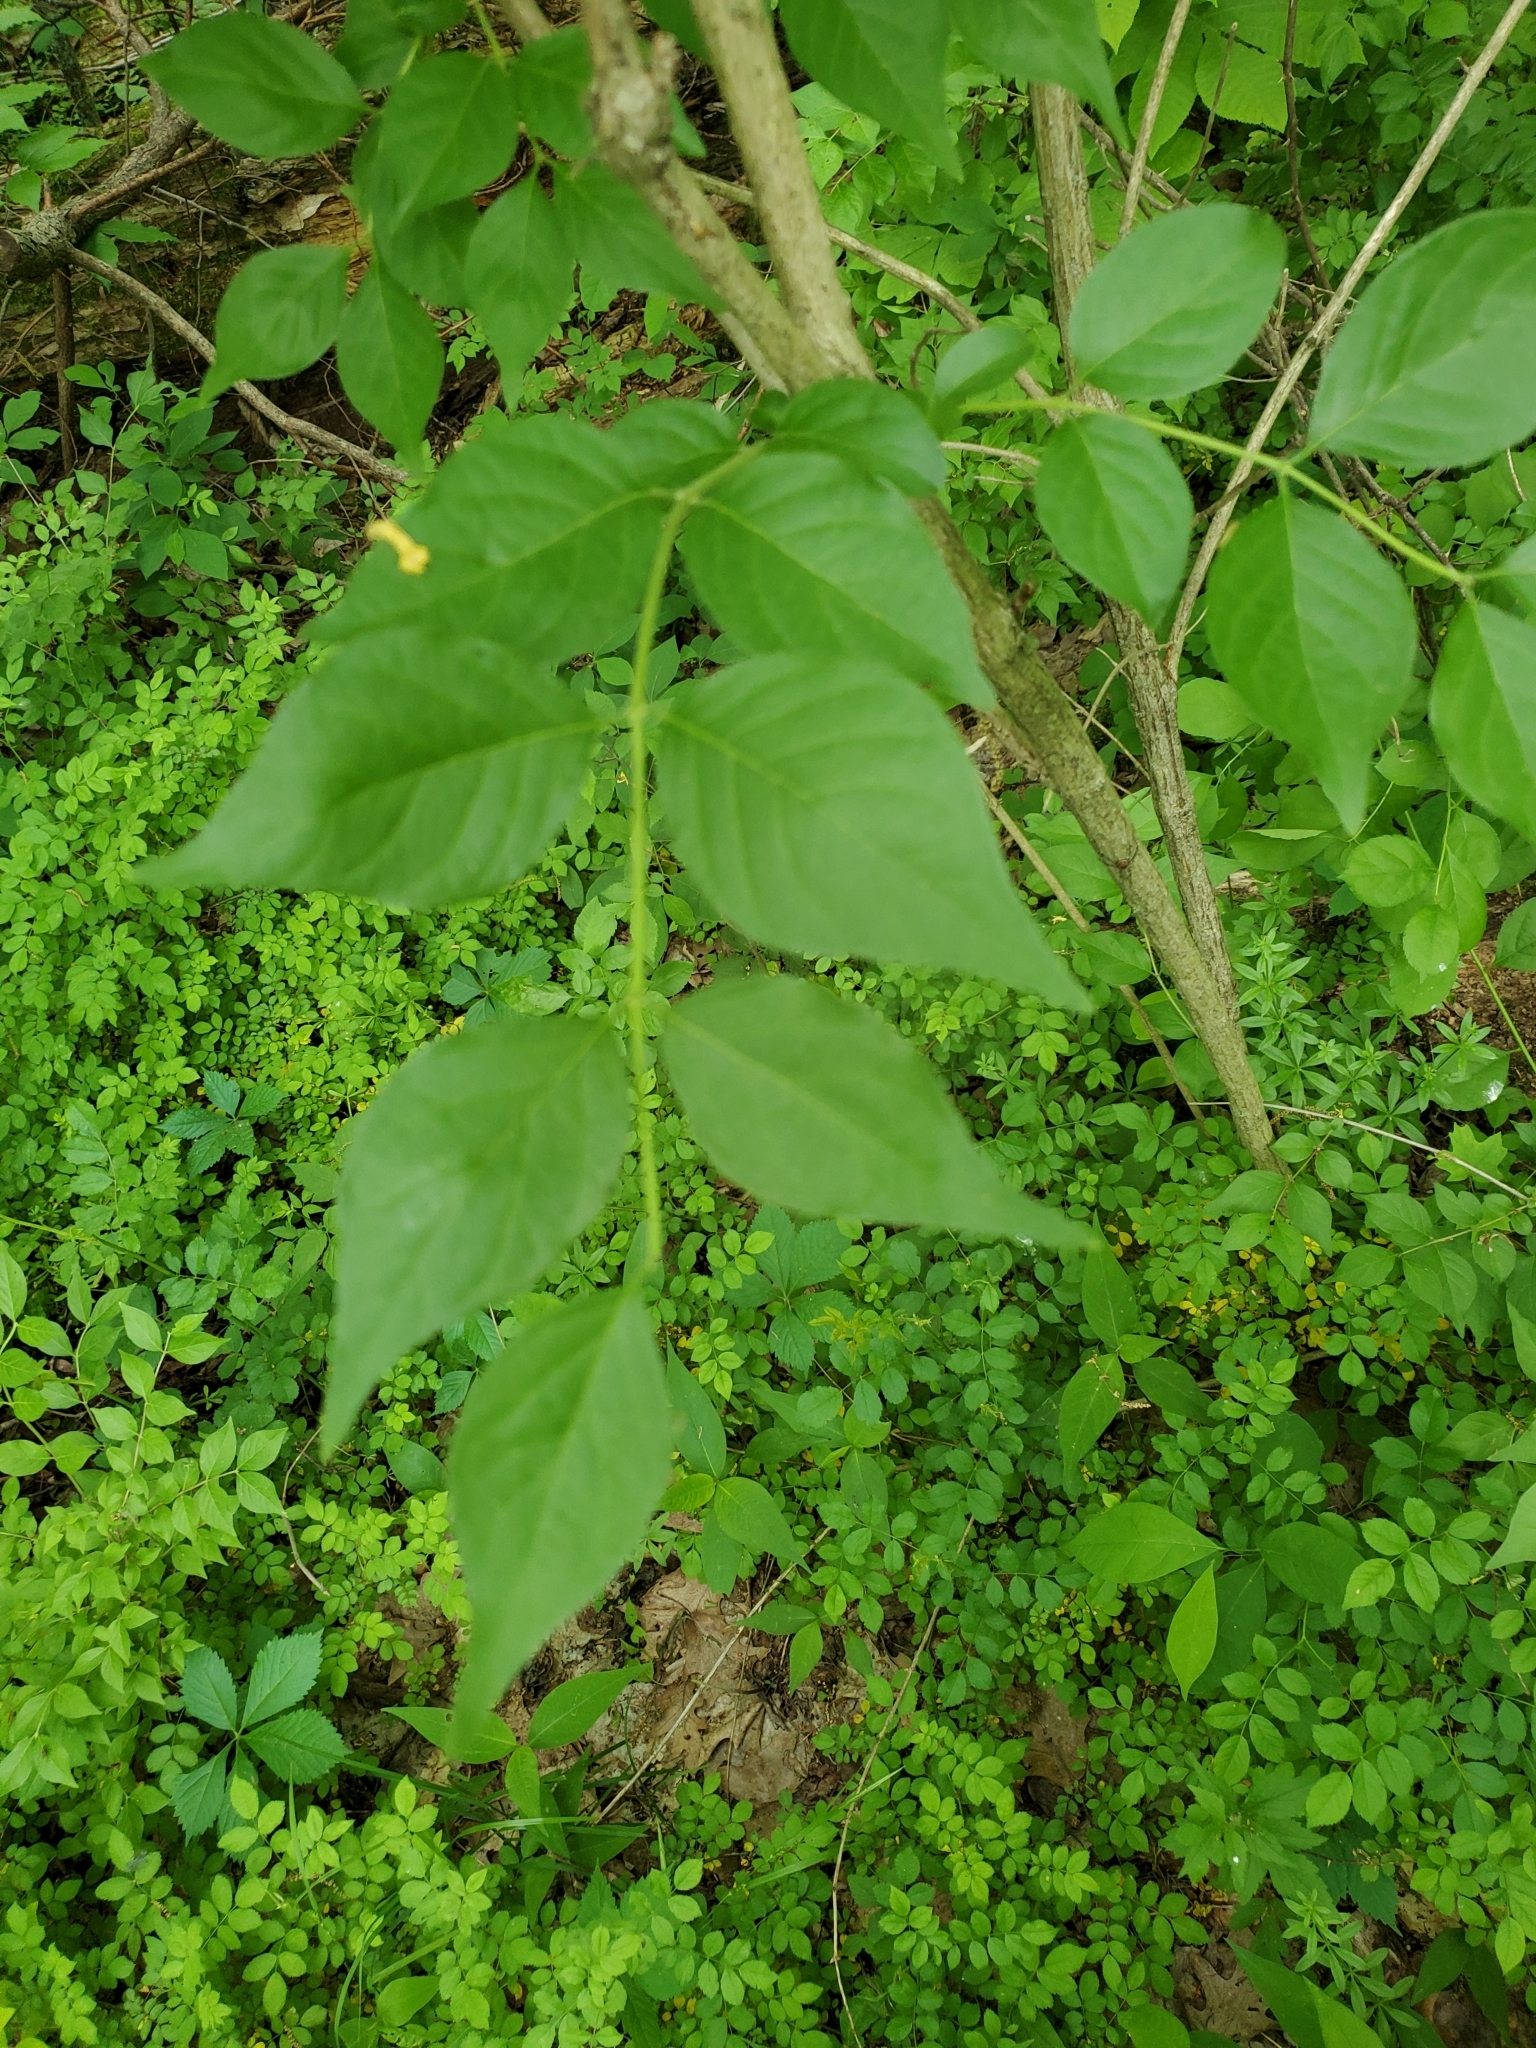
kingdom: Plantae
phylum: Tracheophyta
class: Magnoliopsida
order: Dipsacales
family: Caprifoliaceae
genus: Lonicera
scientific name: Lonicera maackii
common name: Amur honeysuckle
